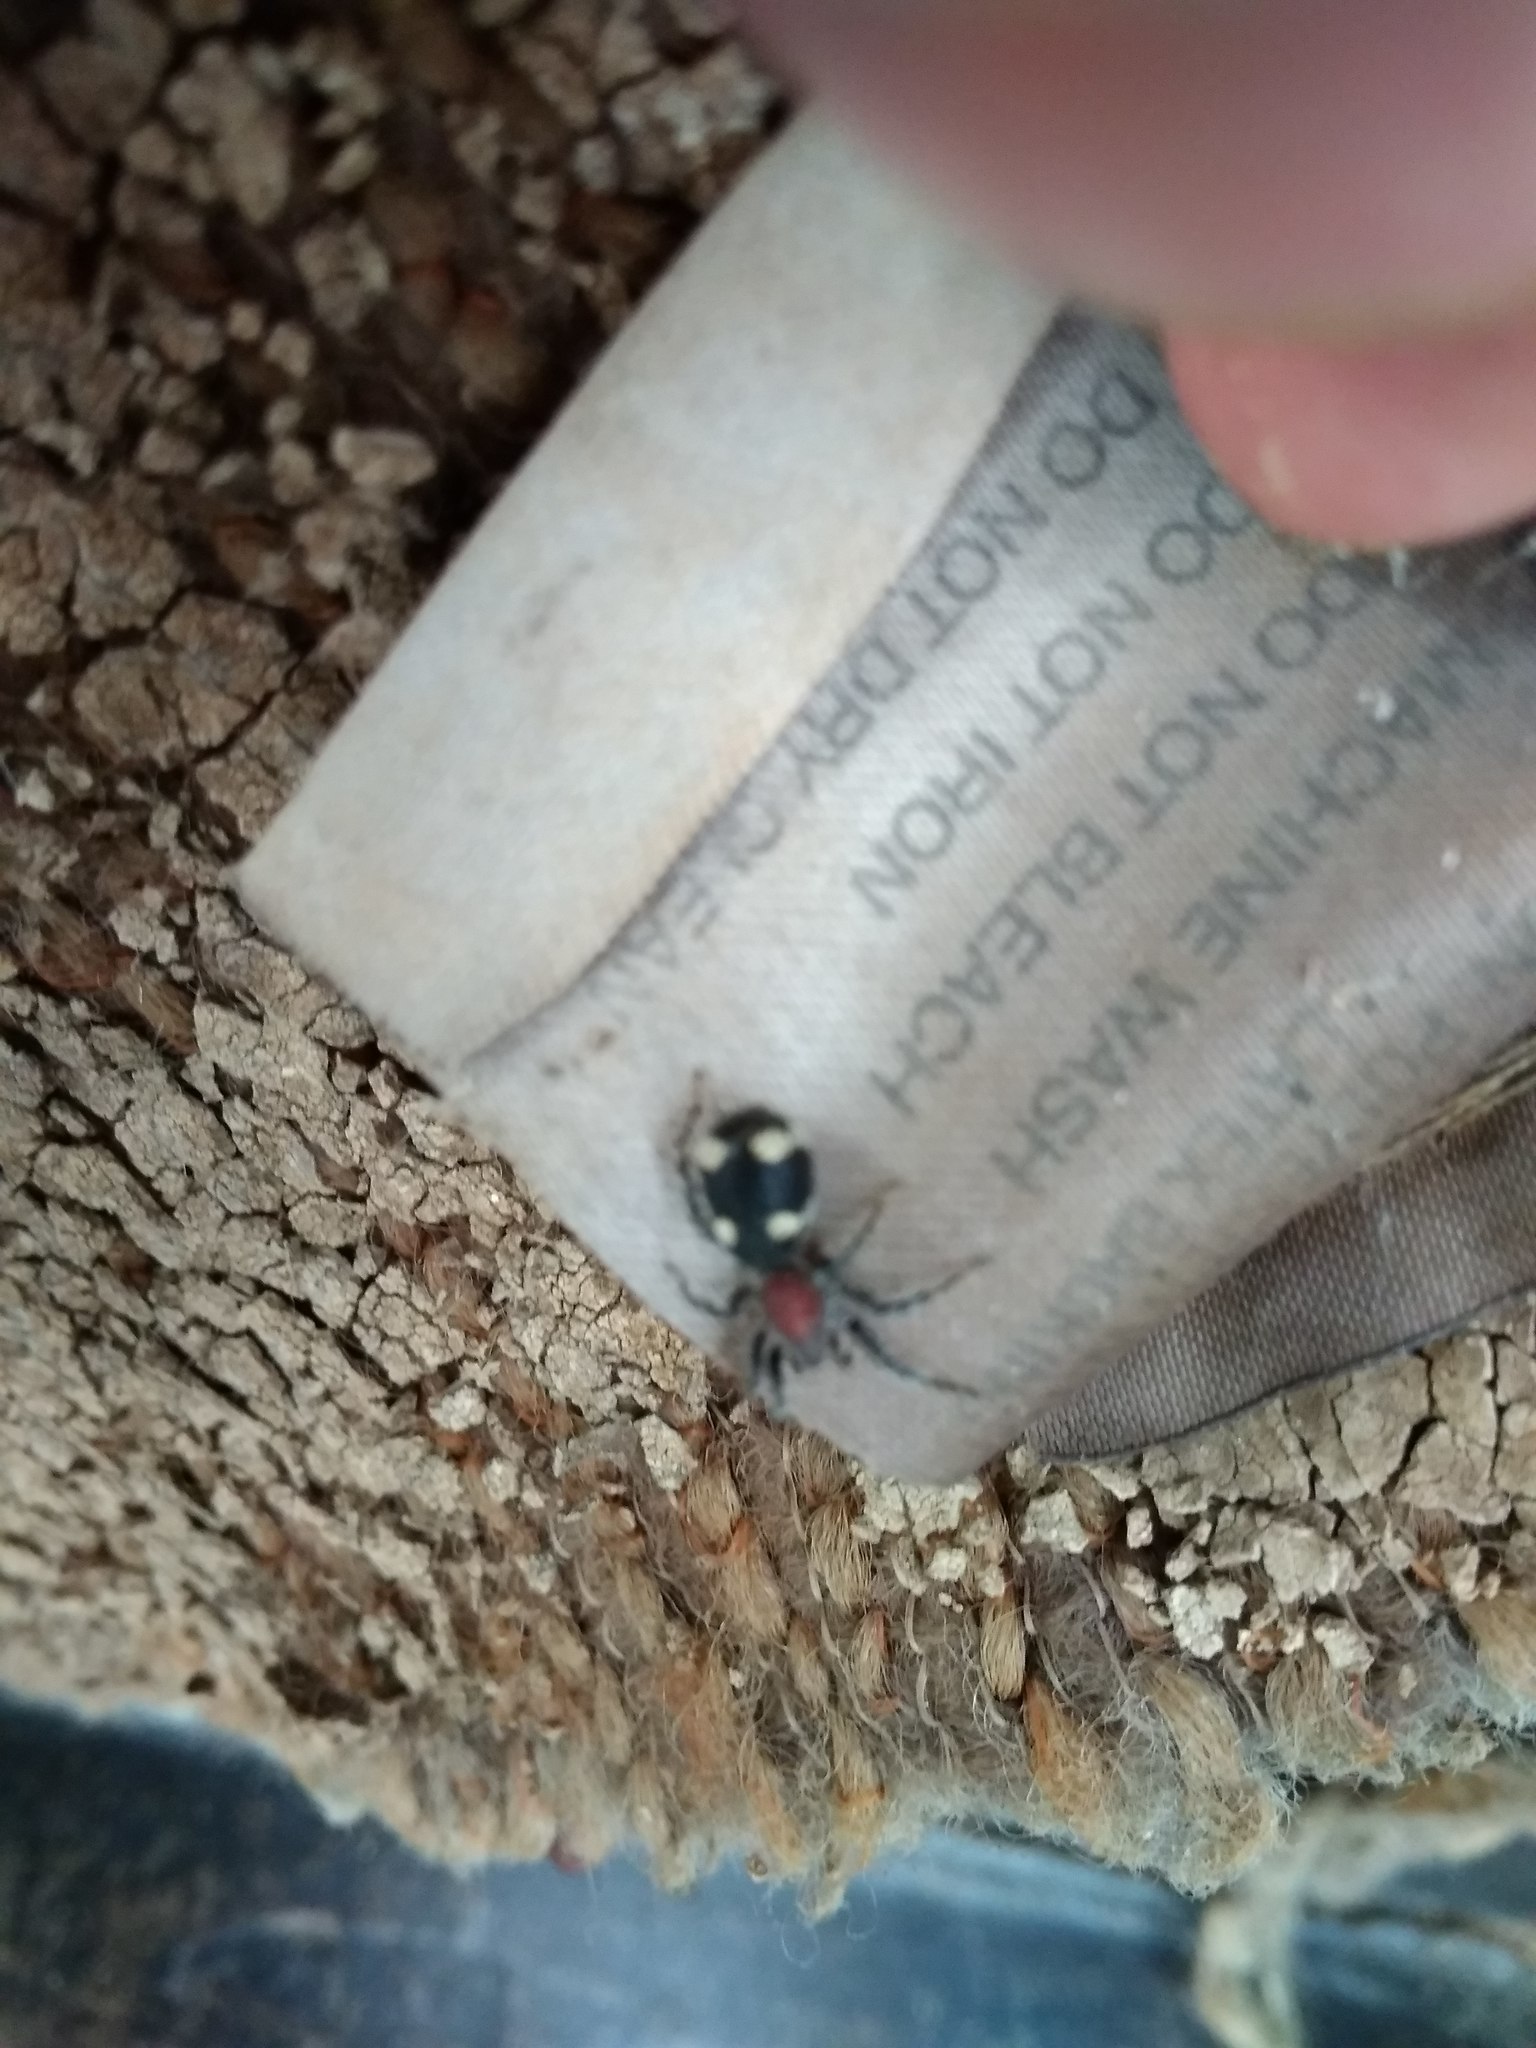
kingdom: Animalia
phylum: Arthropoda
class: Arachnida
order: Araneae
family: Corinnidae
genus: Graptartia
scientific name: Graptartia granulosa
